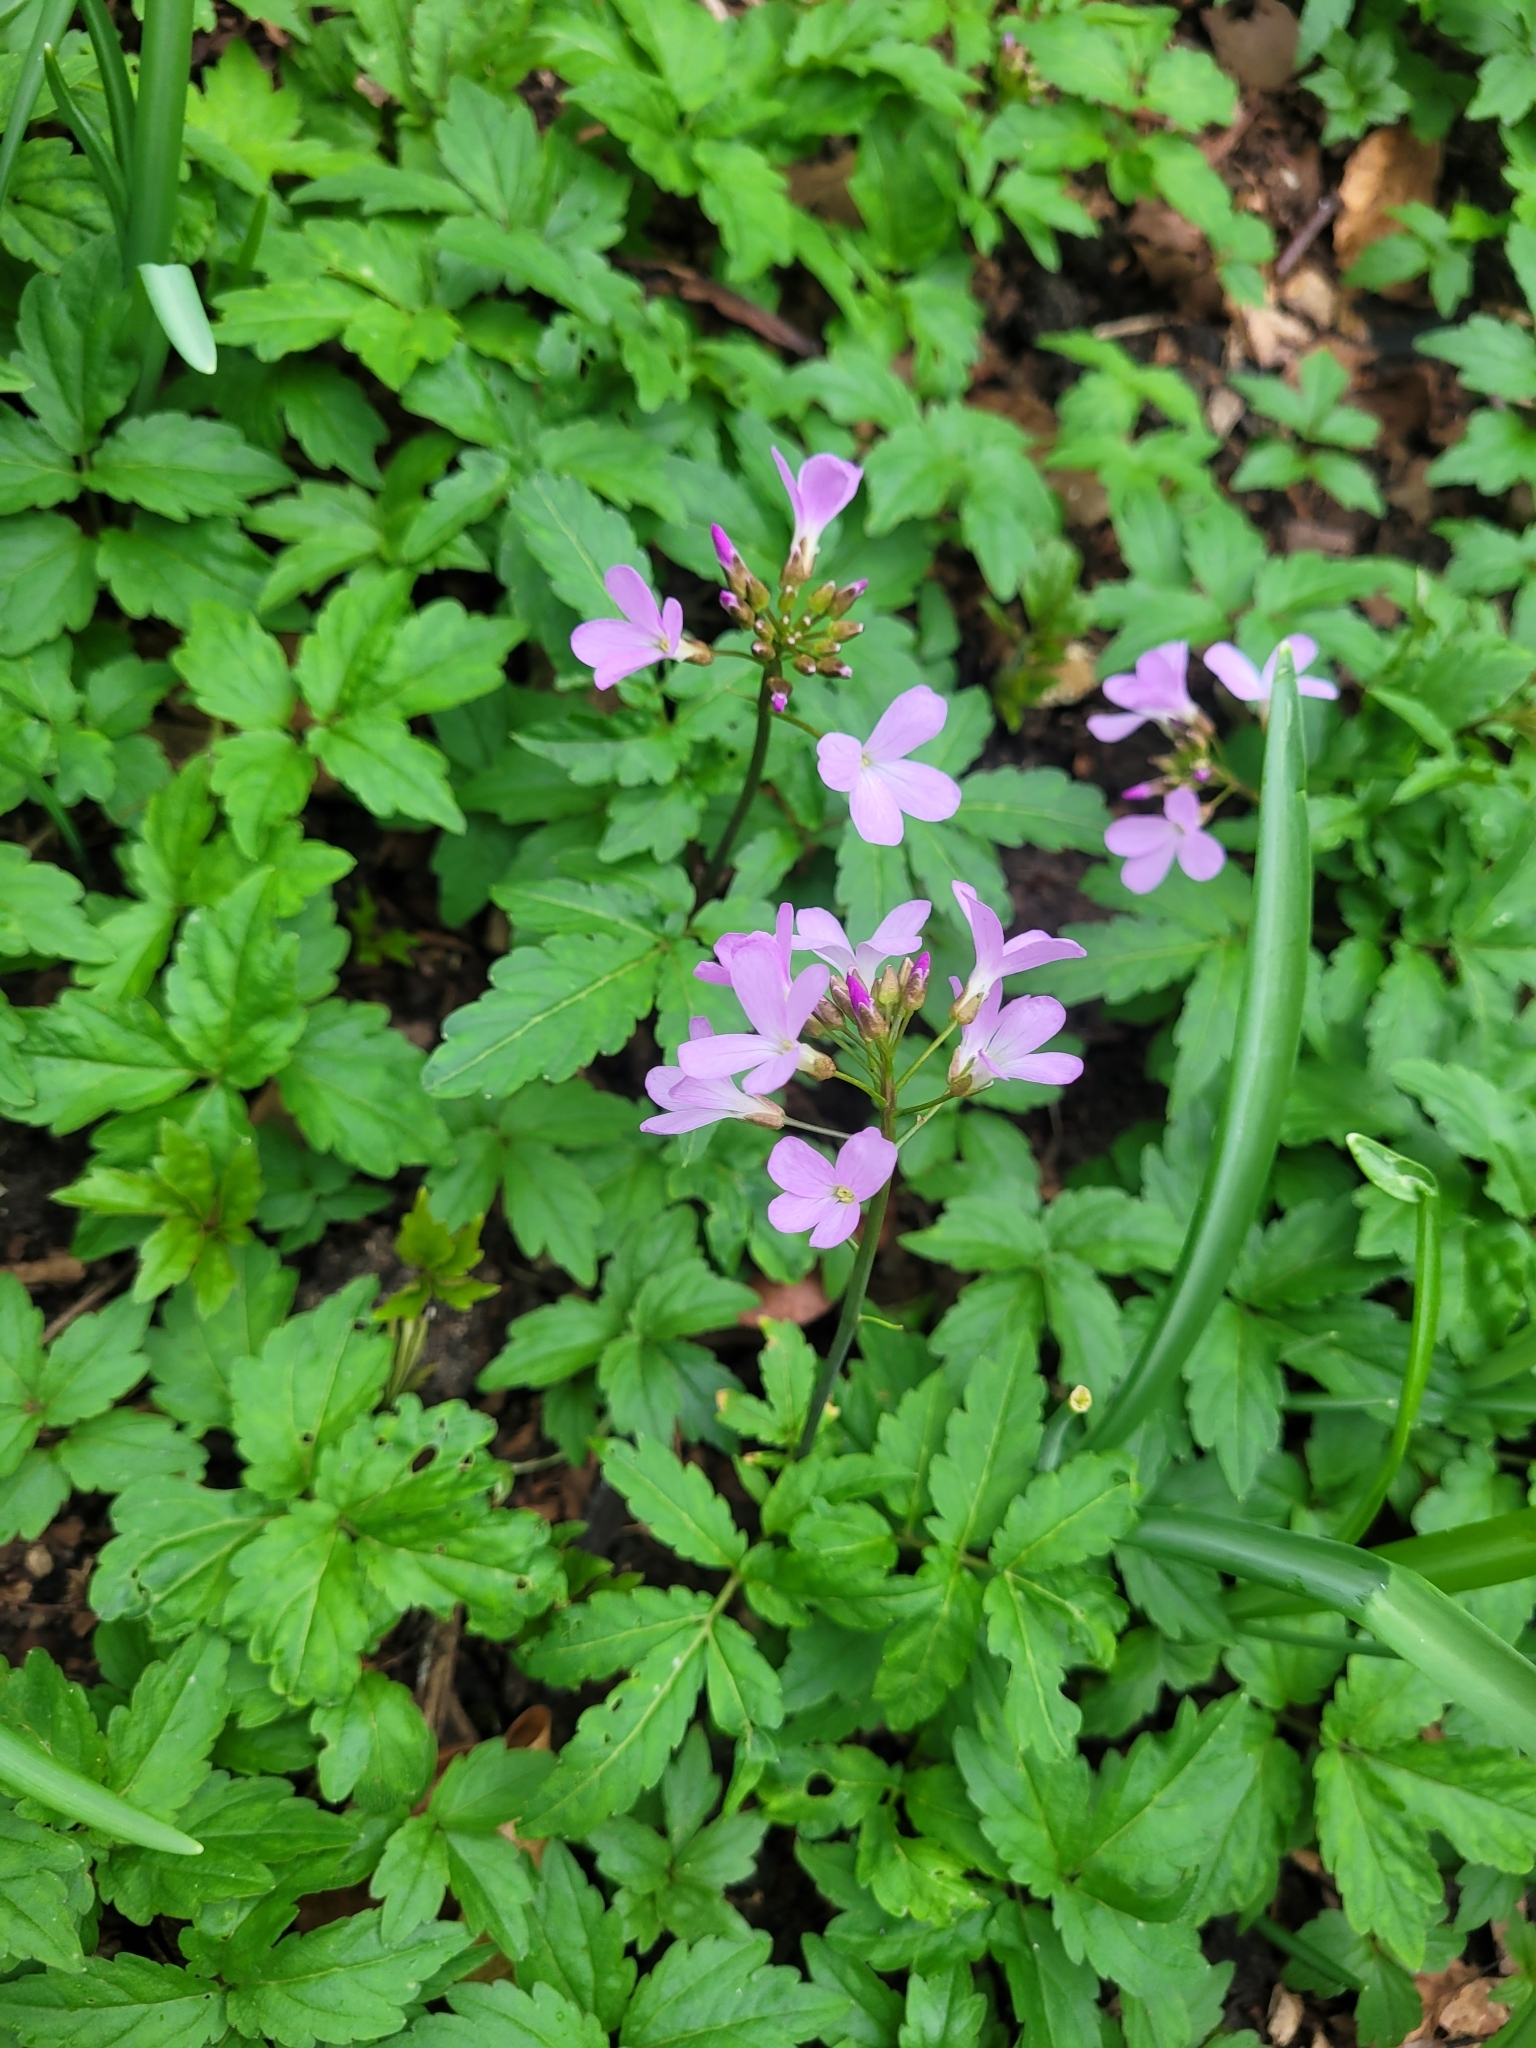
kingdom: Plantae
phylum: Tracheophyta
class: Magnoliopsida
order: Brassicales
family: Brassicaceae
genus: Cardamine
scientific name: Cardamine quinquefolia
